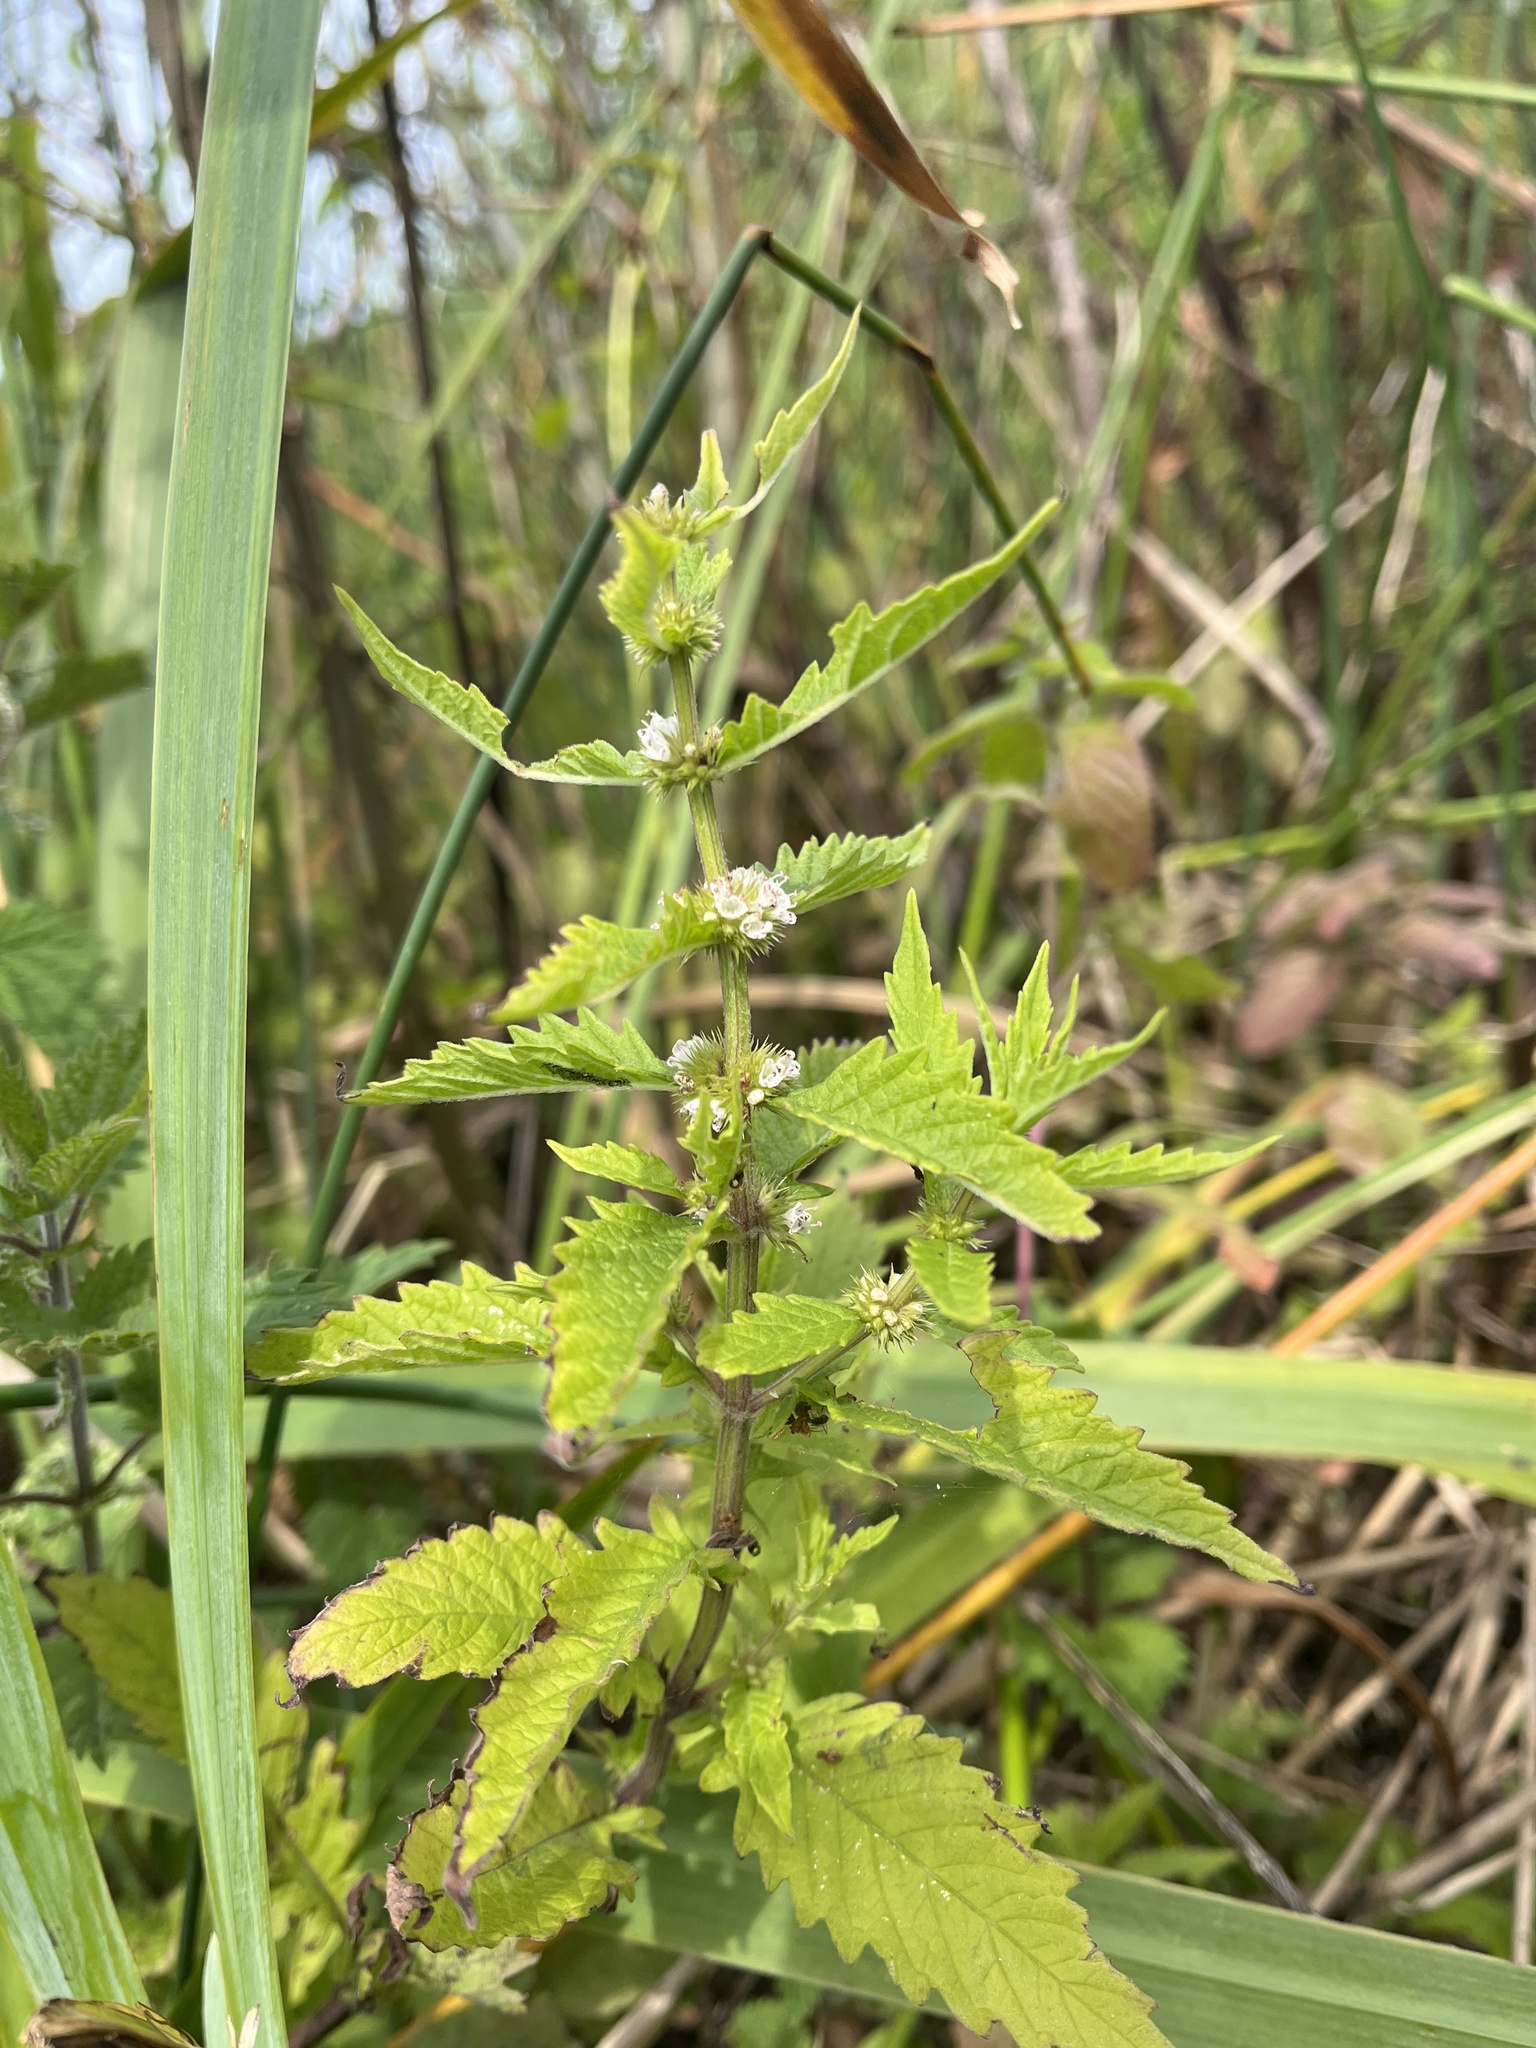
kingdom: Plantae
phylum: Tracheophyta
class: Magnoliopsida
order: Lamiales
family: Lamiaceae
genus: Lycopus
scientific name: Lycopus europaeus
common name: European bugleweed
